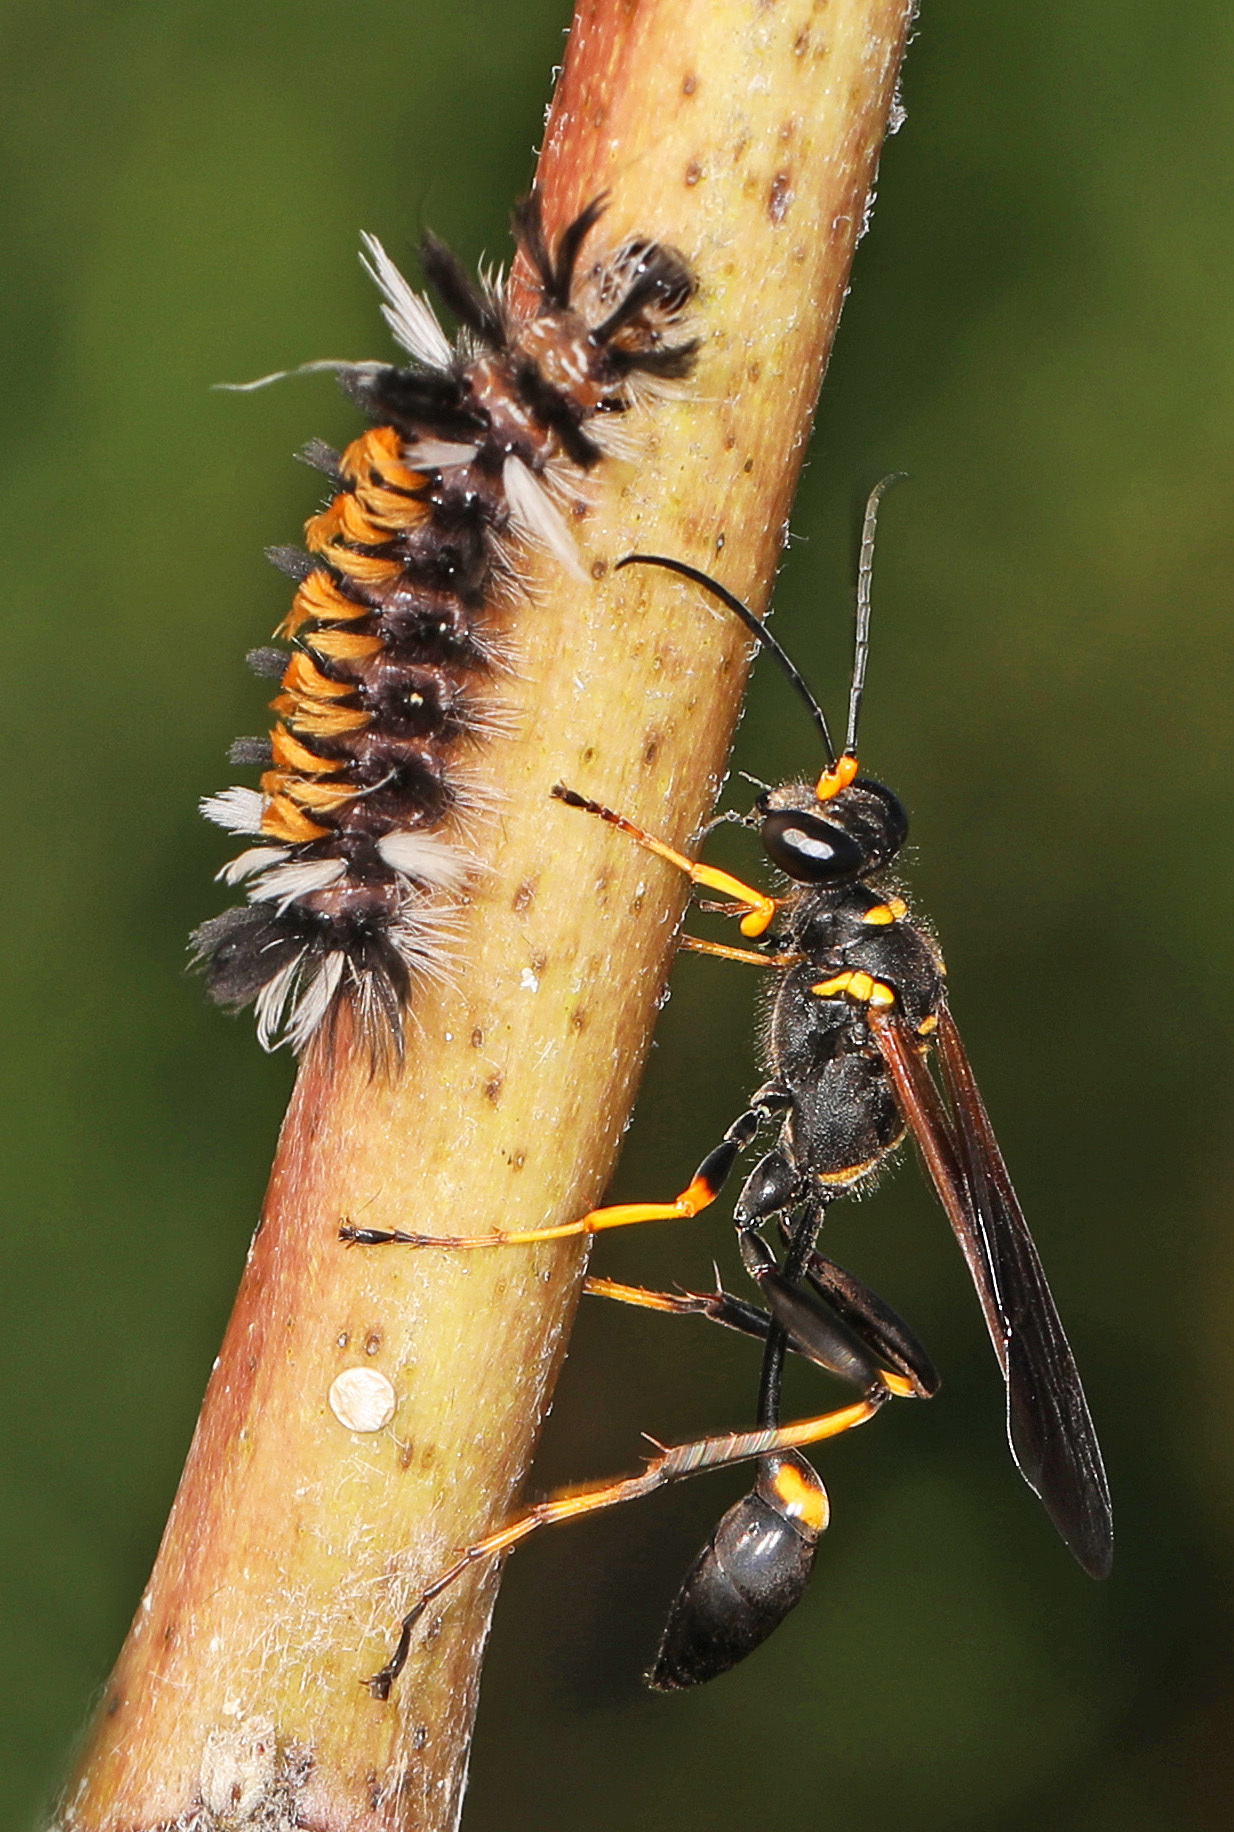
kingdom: Animalia
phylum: Arthropoda
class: Insecta
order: Hymenoptera
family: Sphecidae
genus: Sceliphron
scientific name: Sceliphron caementarium
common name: Mud dauber
